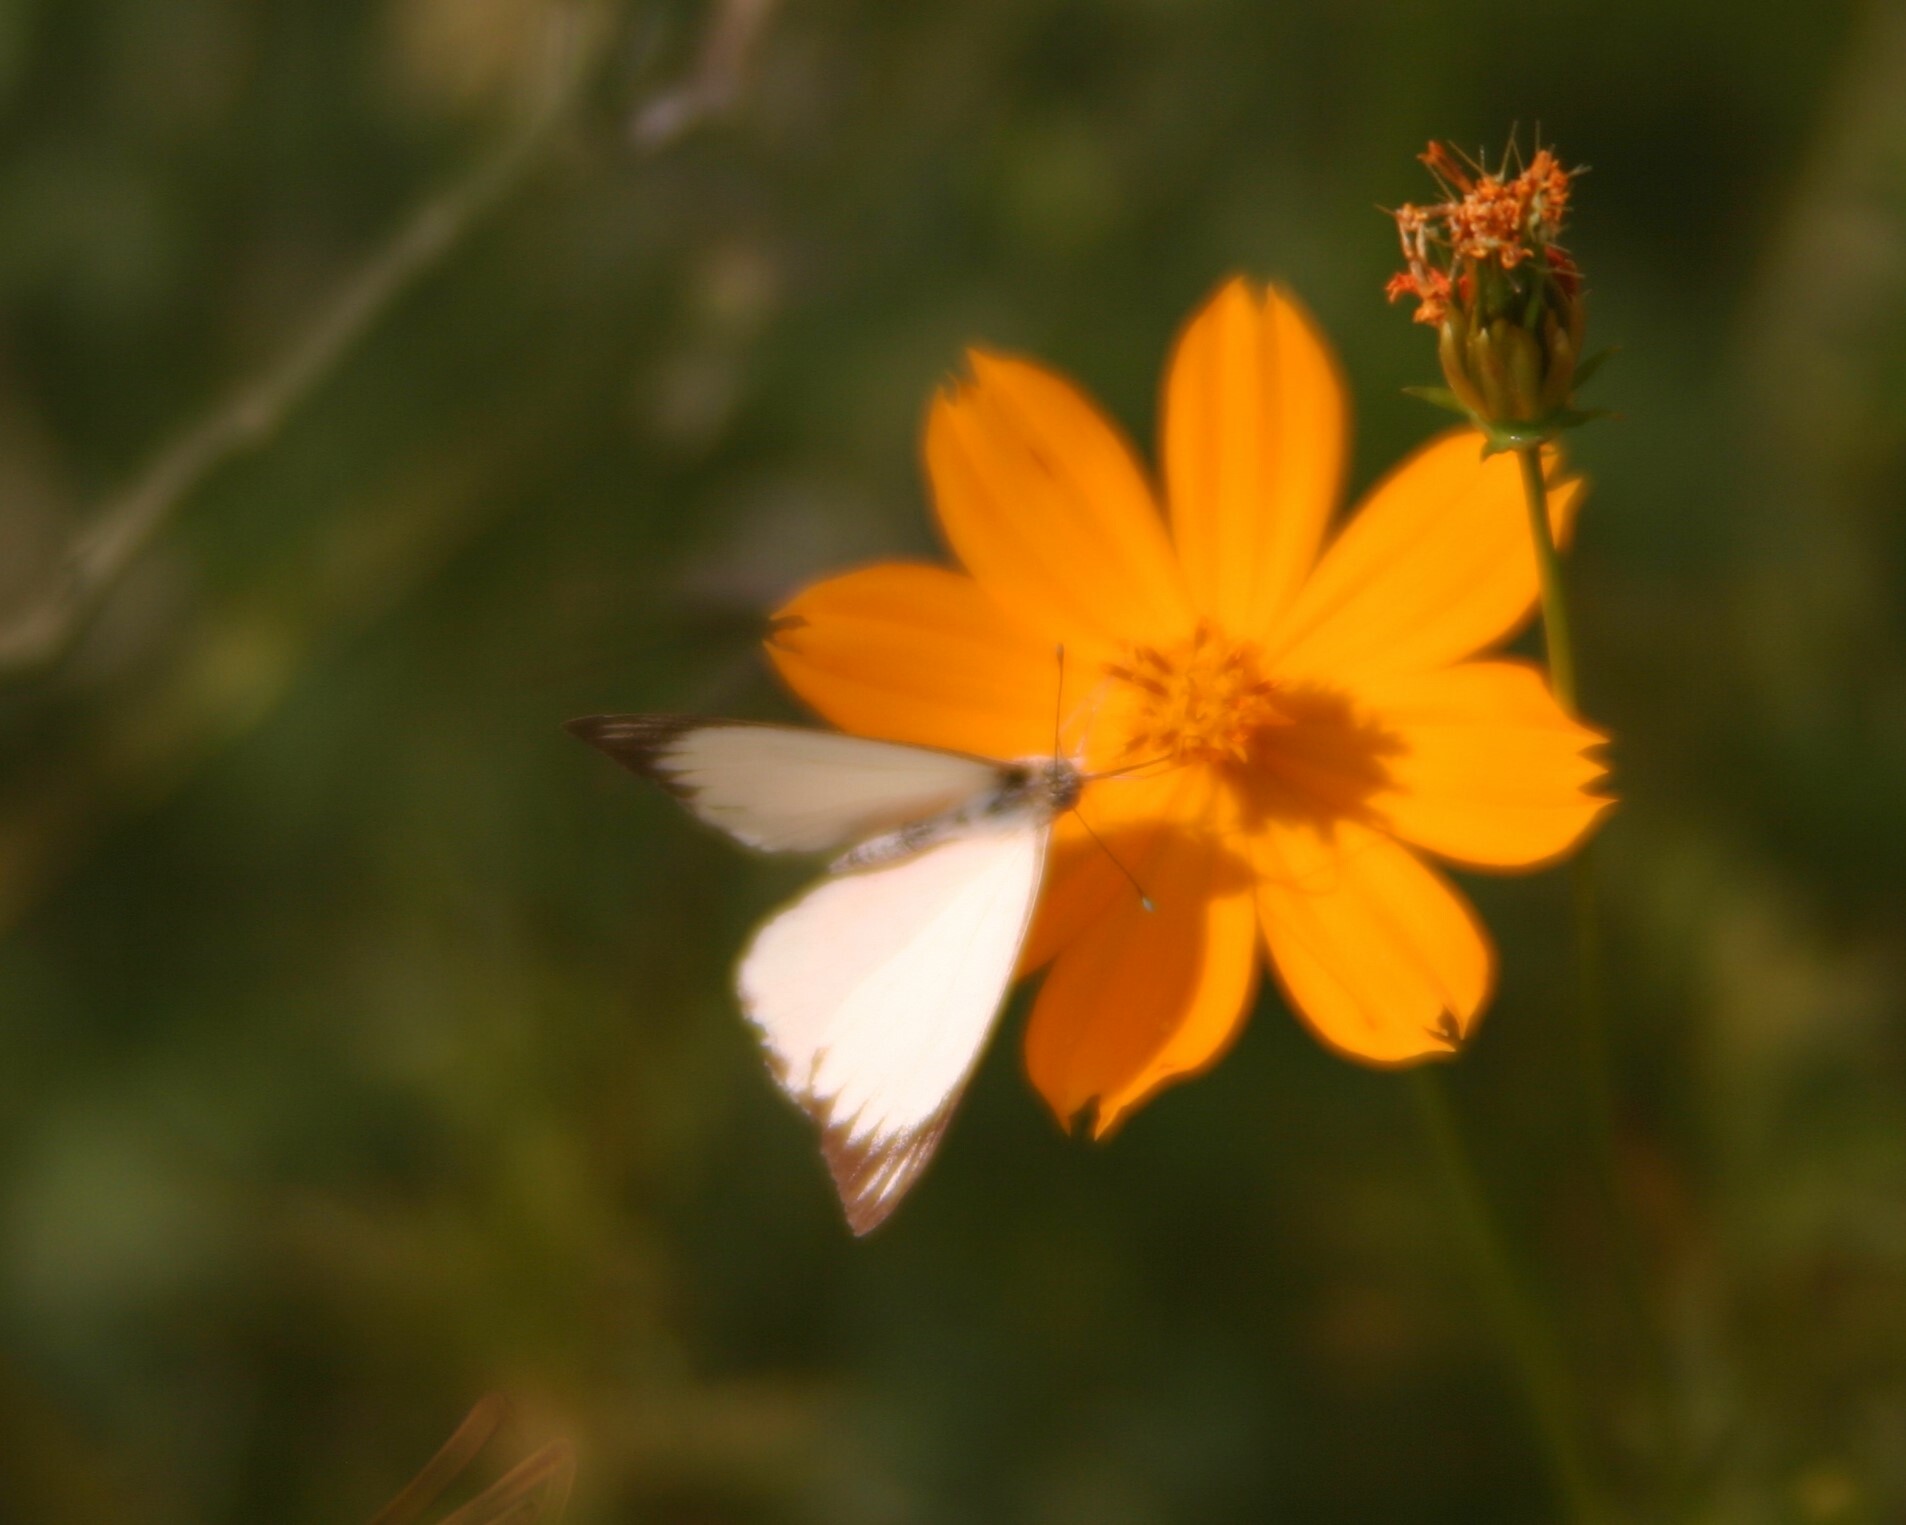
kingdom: Animalia
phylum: Arthropoda
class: Insecta
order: Lepidoptera
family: Pieridae
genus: Ascia
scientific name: Ascia monuste
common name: Great southern white
